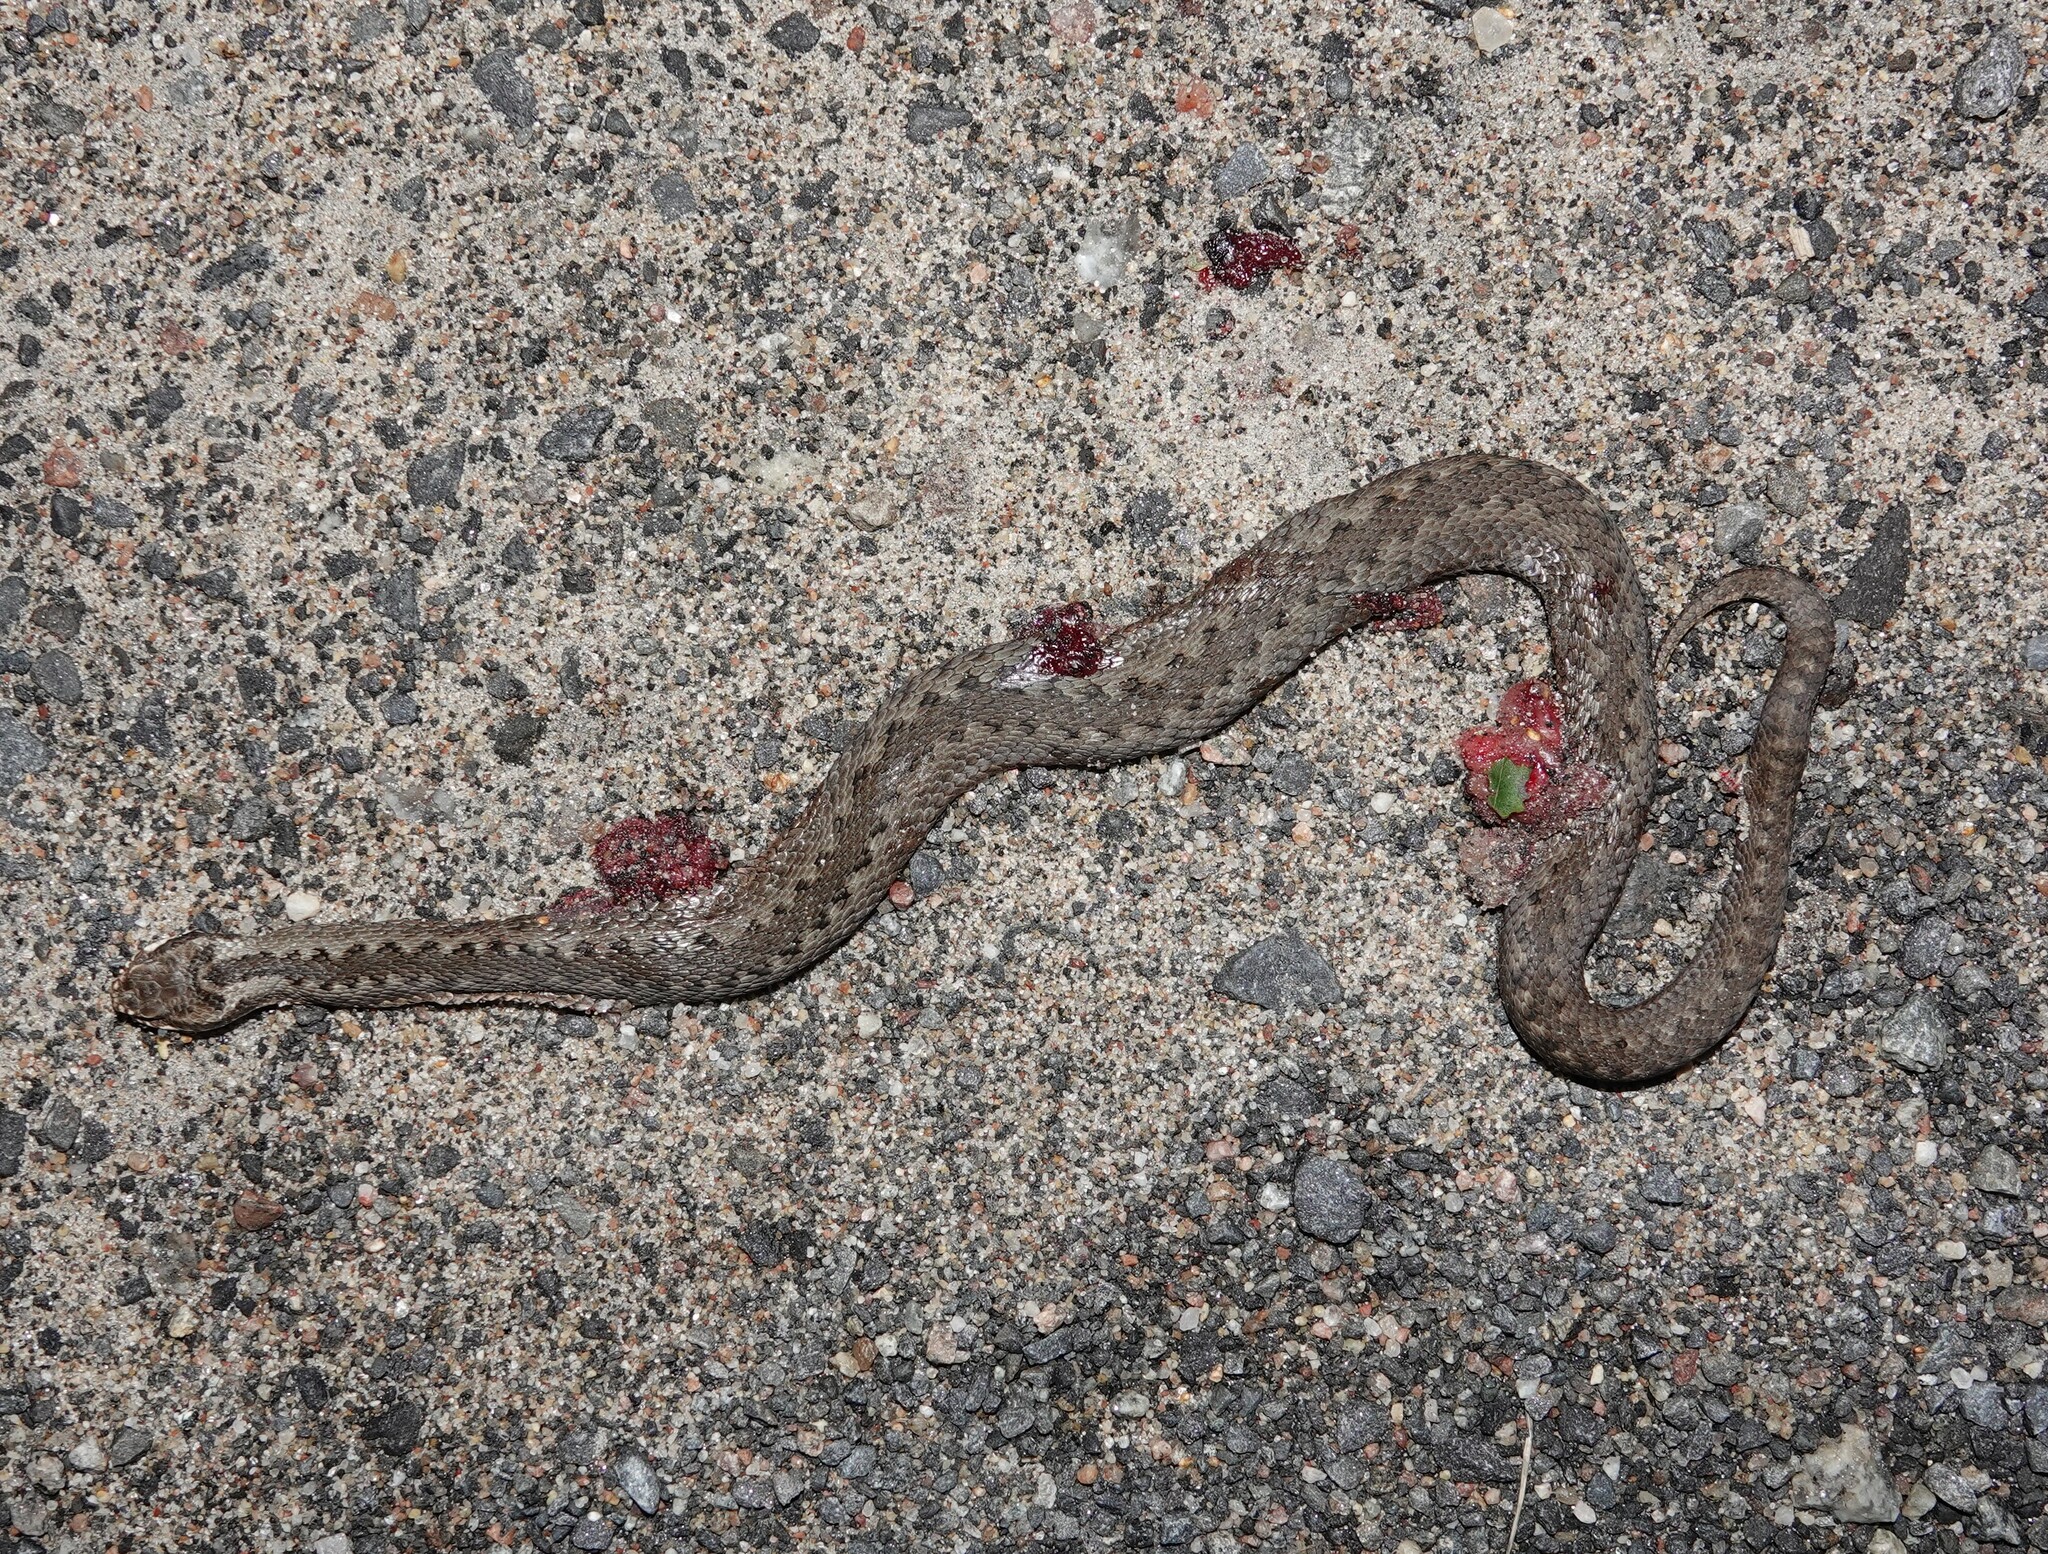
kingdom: Animalia
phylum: Chordata
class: Squamata
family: Viperidae
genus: Vipera
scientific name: Vipera berus
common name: Adder
